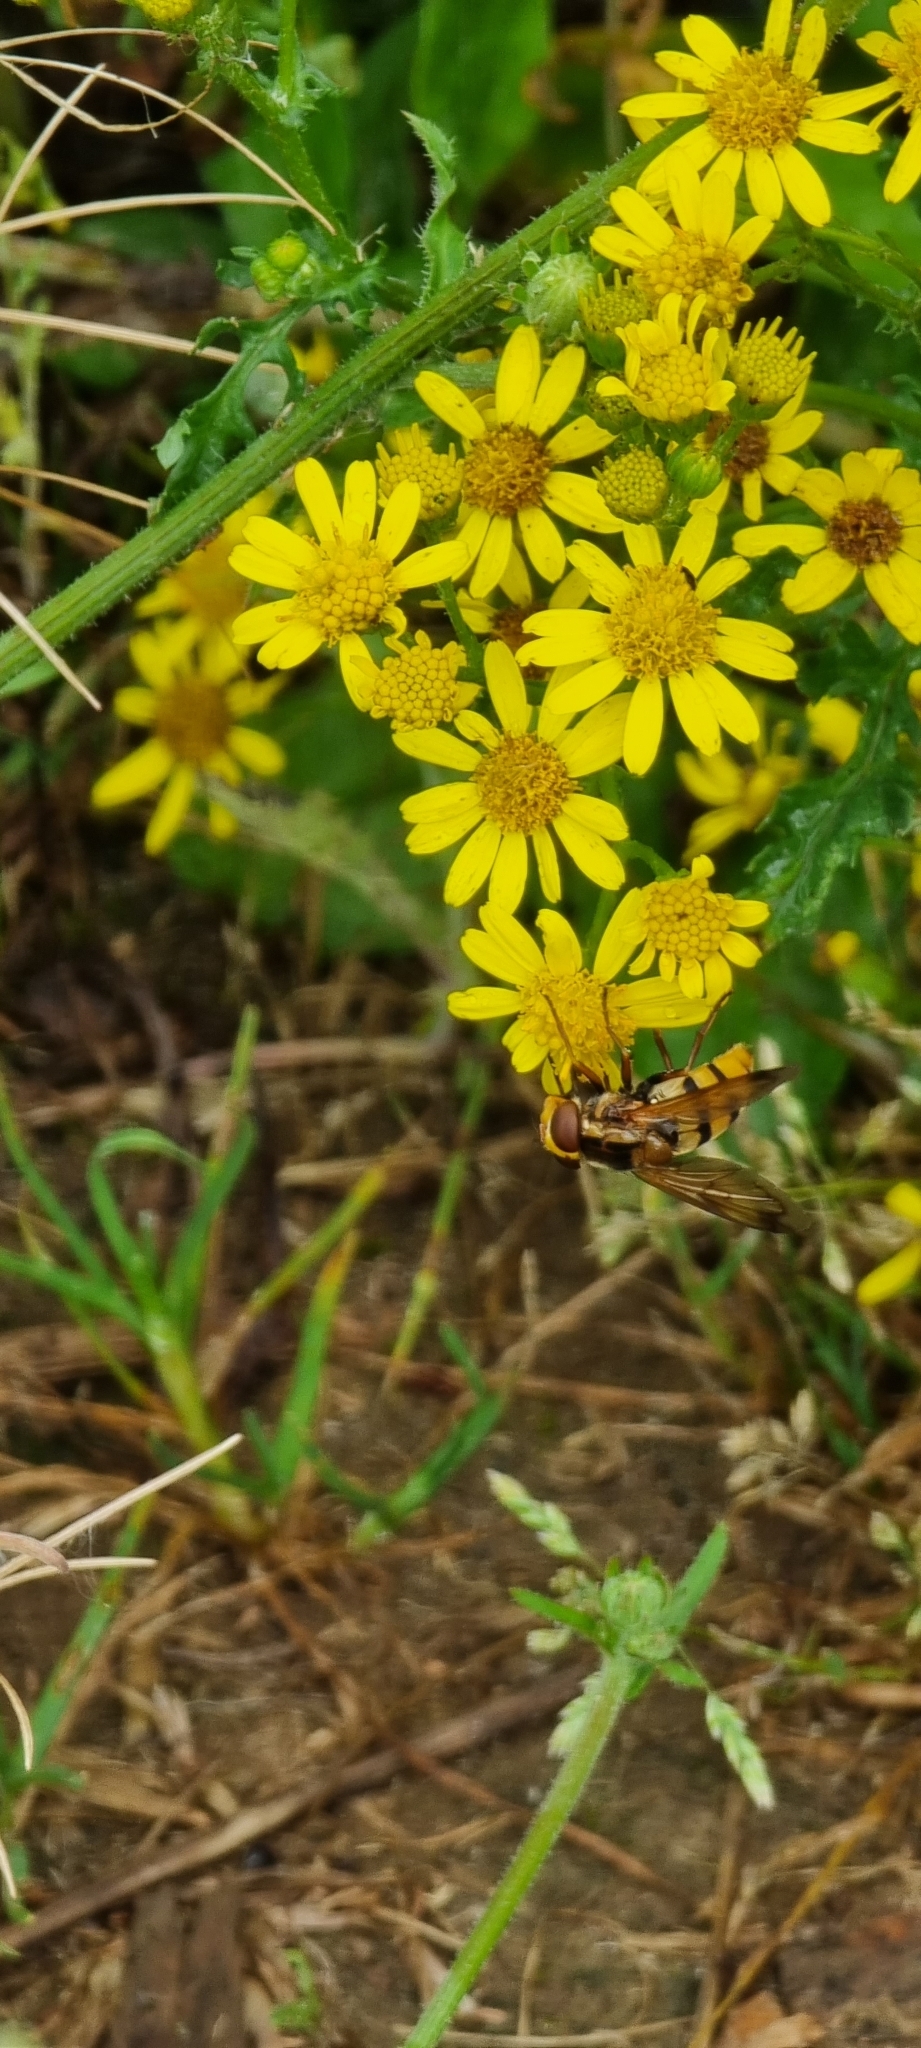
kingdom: Animalia
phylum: Arthropoda
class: Insecta
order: Diptera
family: Syrphidae
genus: Volucella
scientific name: Volucella inanis
